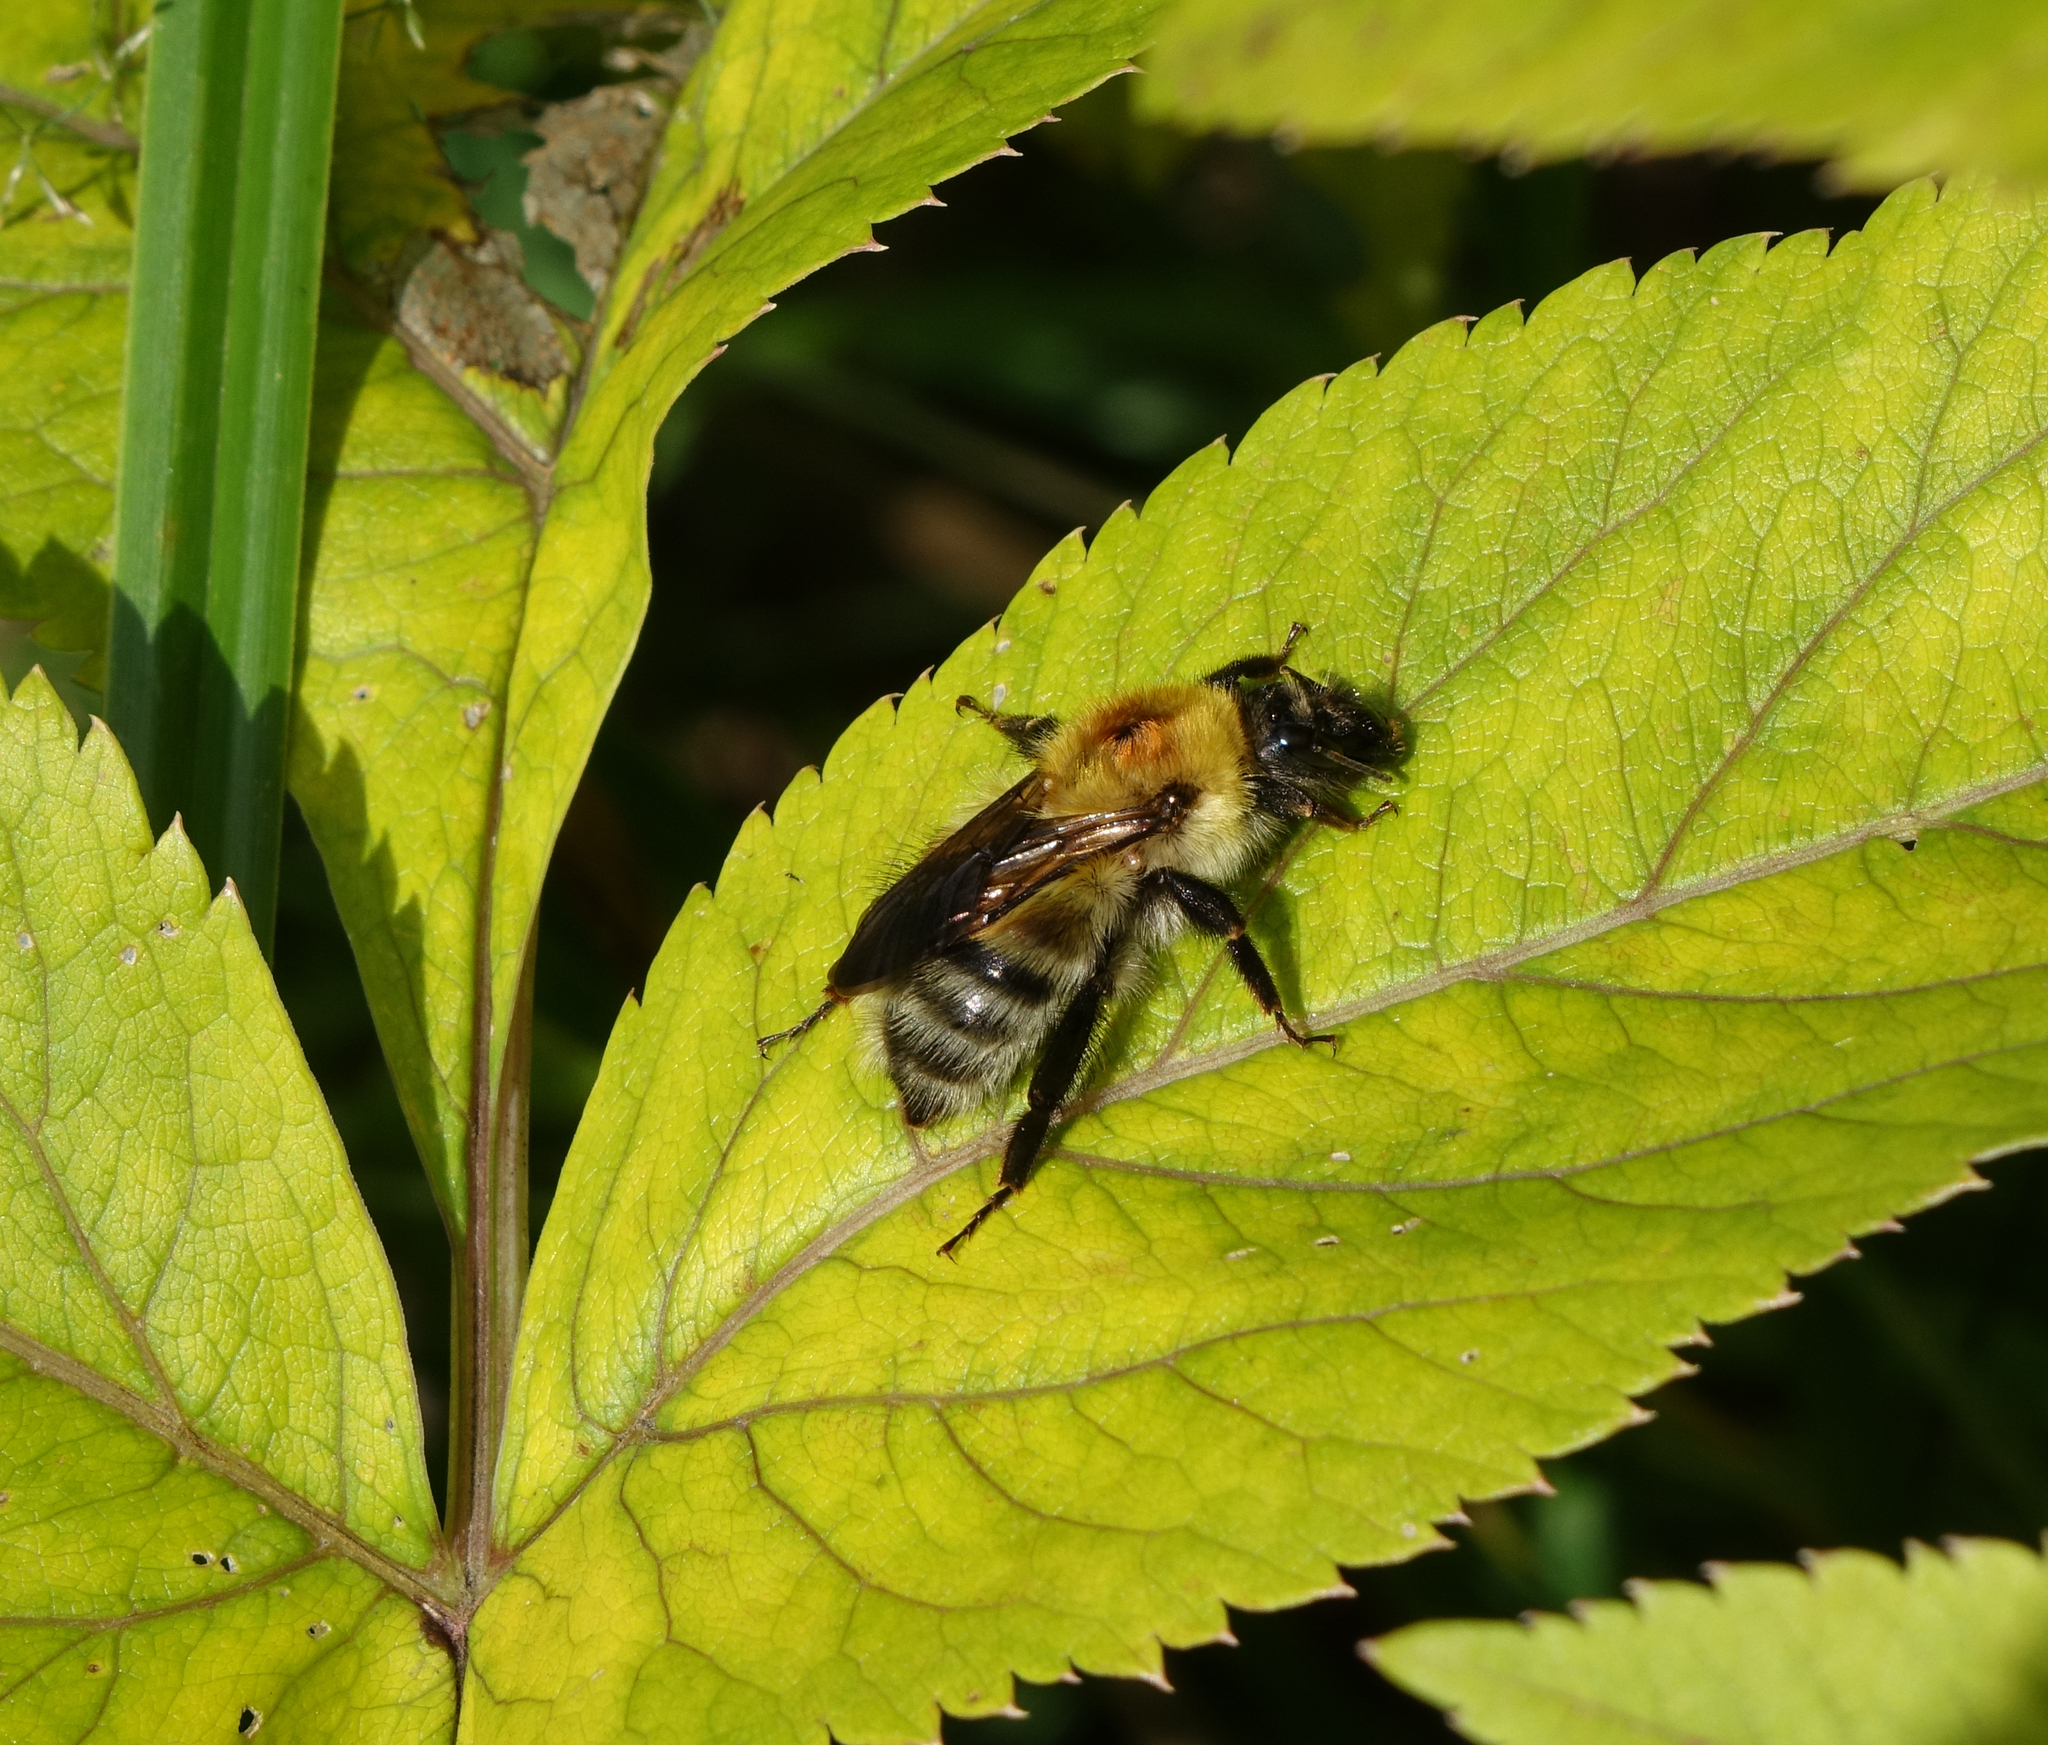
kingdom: Animalia
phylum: Arthropoda
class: Insecta
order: Hymenoptera
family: Apidae
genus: Bombus
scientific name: Bombus consobrinus
